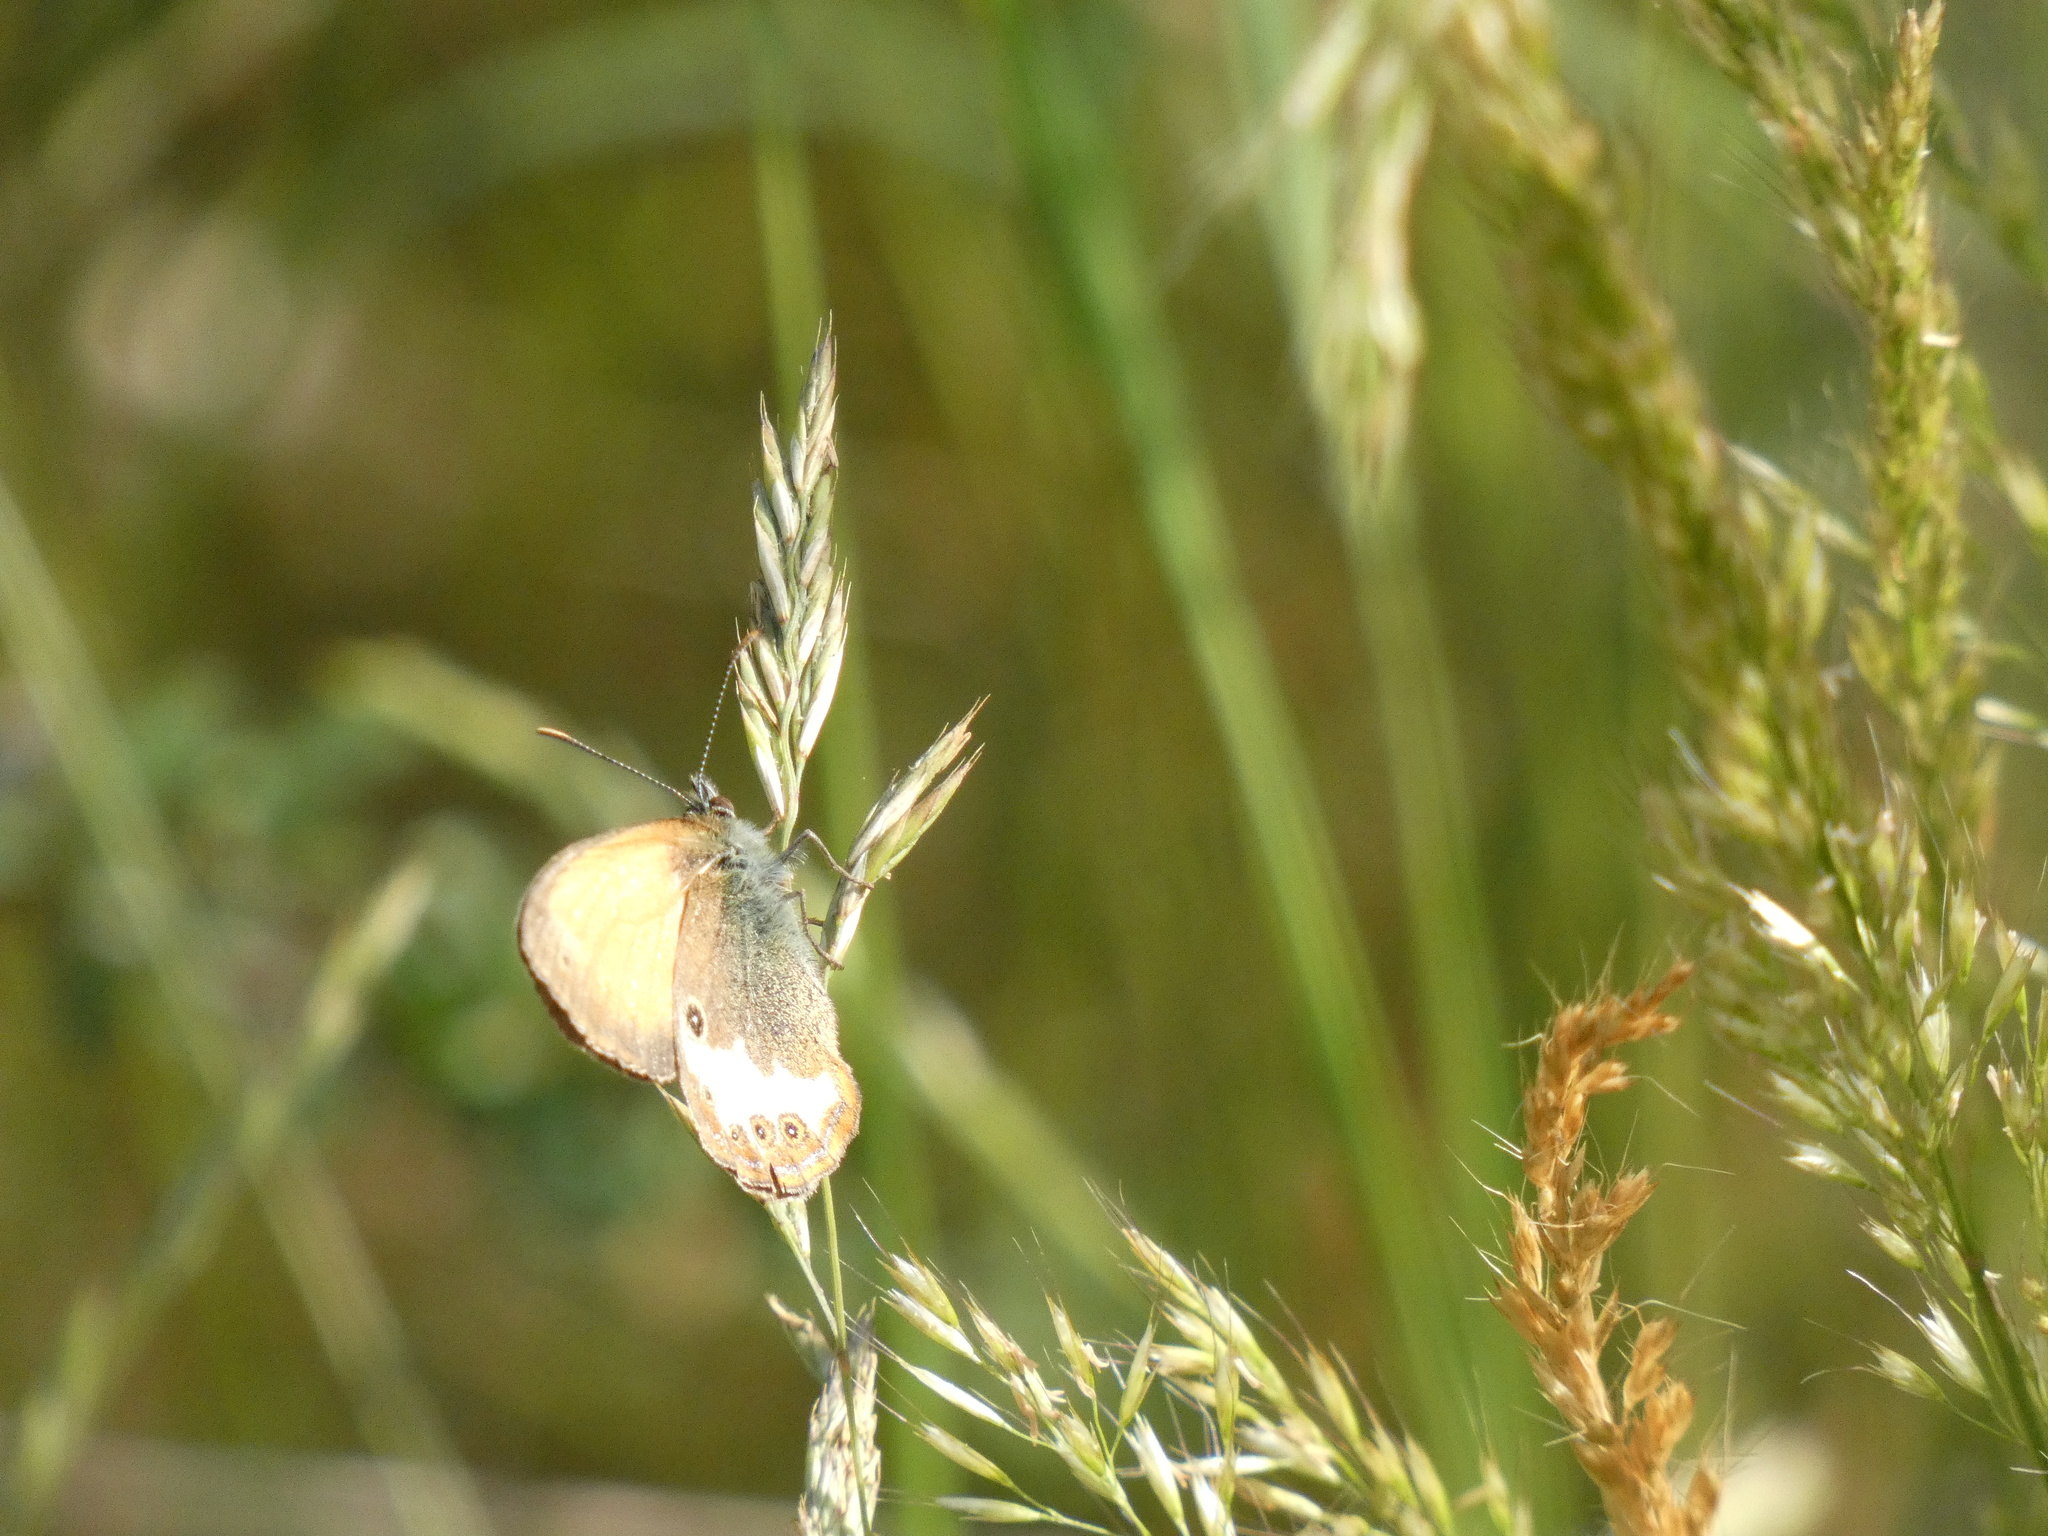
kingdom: Animalia
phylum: Arthropoda
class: Insecta
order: Lepidoptera
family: Nymphalidae
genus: Coenonympha
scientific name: Coenonympha arcania
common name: Pearly heath
